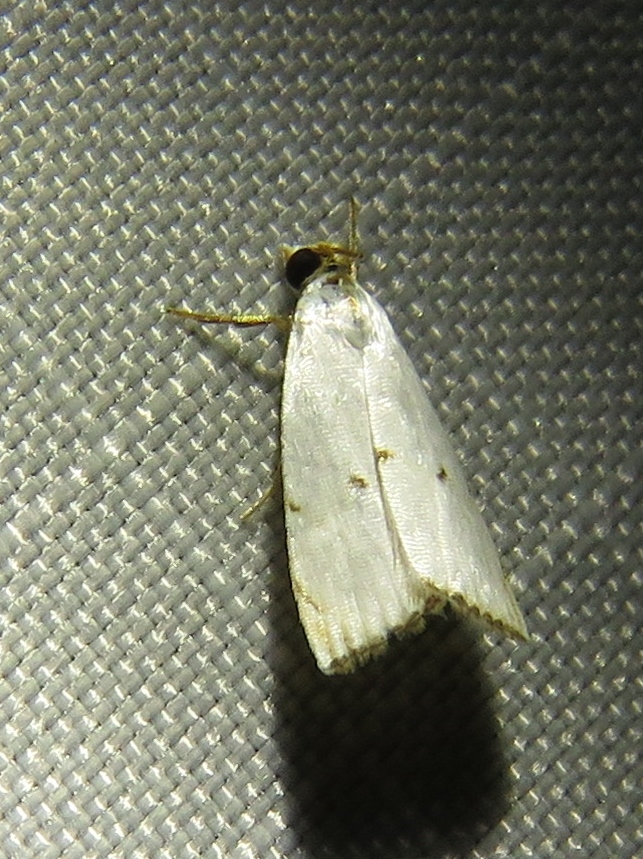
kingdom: Animalia
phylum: Arthropoda
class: Insecta
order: Lepidoptera
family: Crambidae
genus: Argyria
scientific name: Argyria pusillalis
